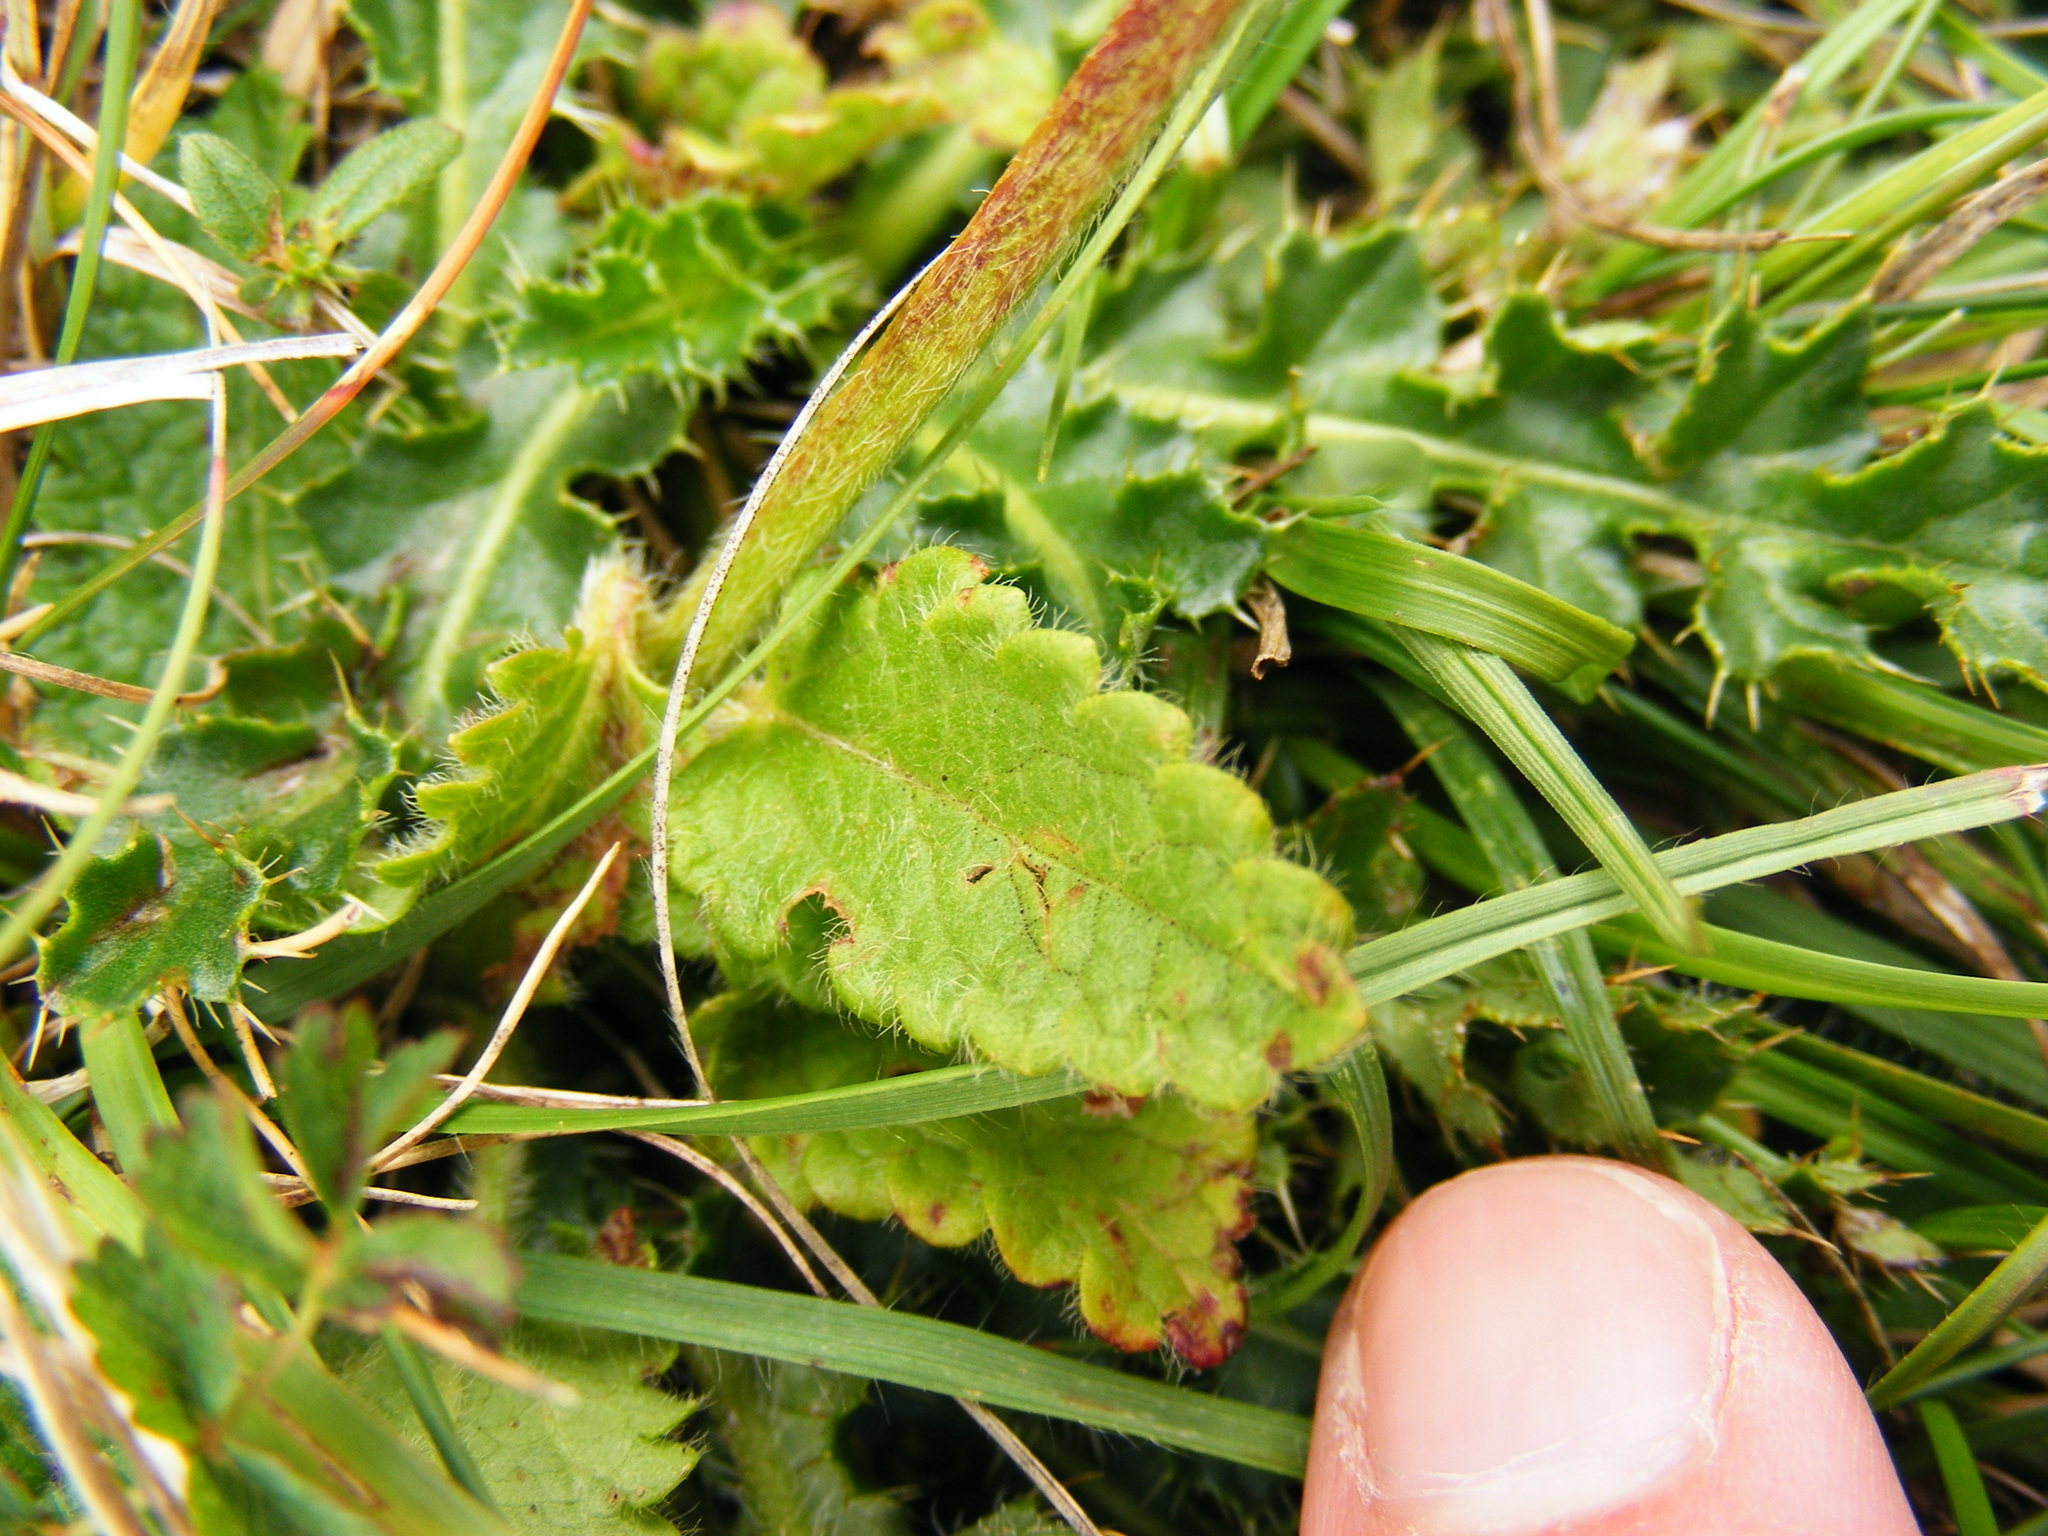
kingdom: Plantae
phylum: Tracheophyta
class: Magnoliopsida
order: Lamiales
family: Lamiaceae
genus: Betonica
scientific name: Betonica officinalis
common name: Bishop's-wort
